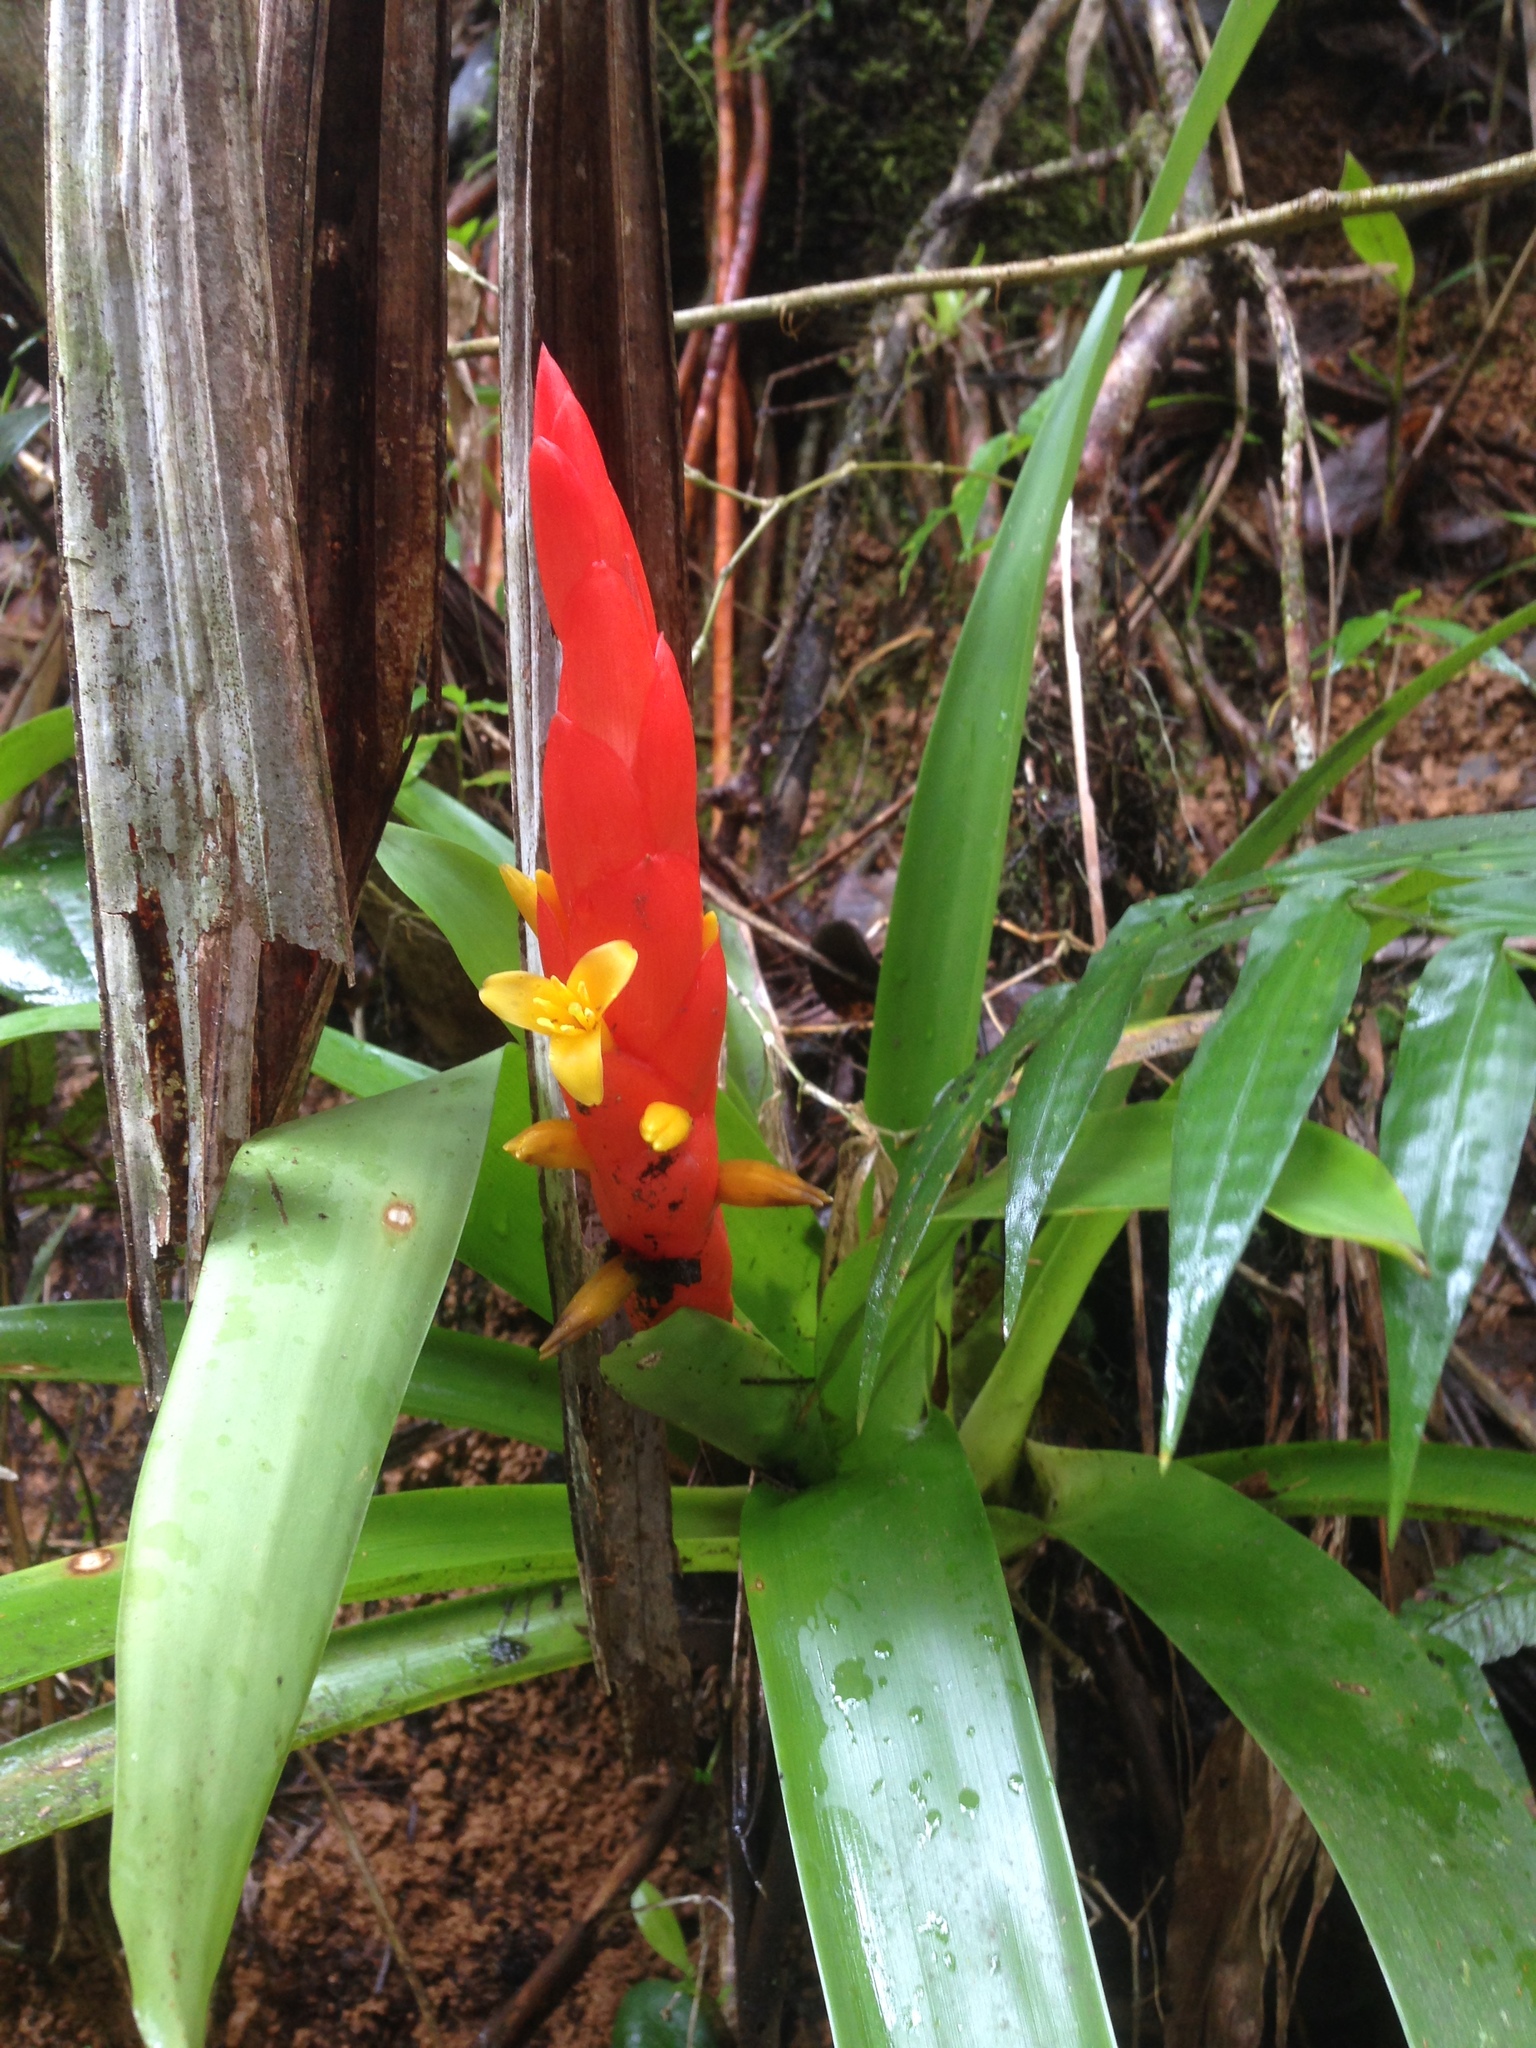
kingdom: Plantae
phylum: Tracheophyta
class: Liliopsida
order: Poales
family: Bromeliaceae
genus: Guzmania
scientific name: Guzmania berteroniana
